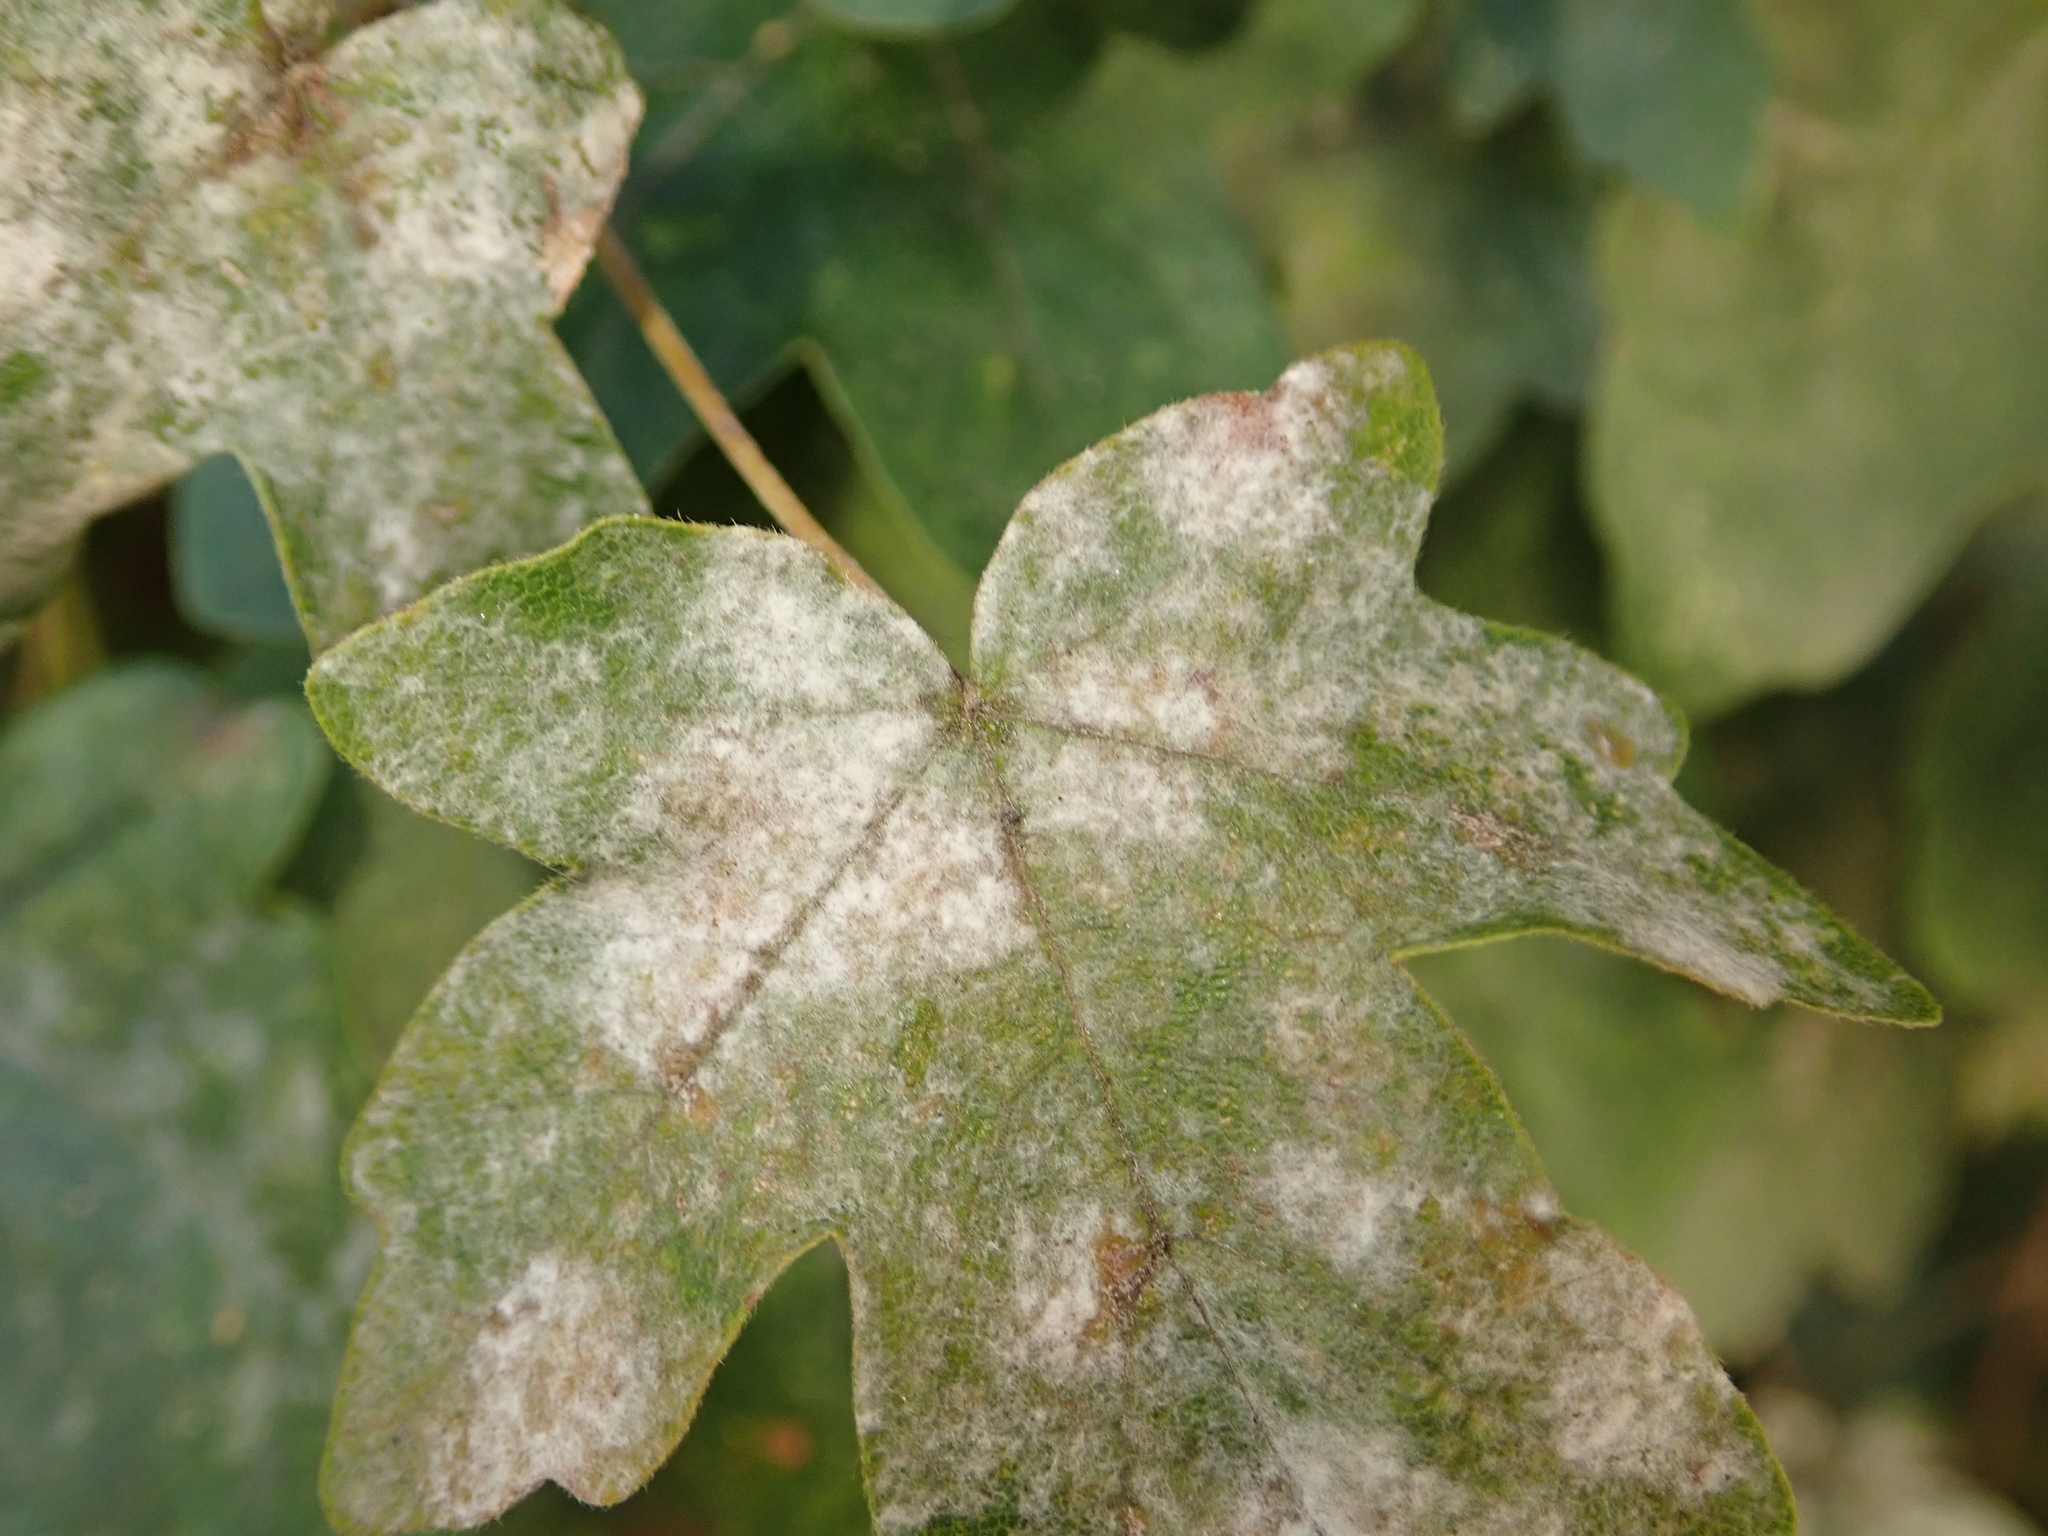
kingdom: Fungi
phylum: Ascomycota
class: Leotiomycetes
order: Helotiales
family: Erysiphaceae
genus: Sawadaea
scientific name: Sawadaea bicornis
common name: Maple mildew
